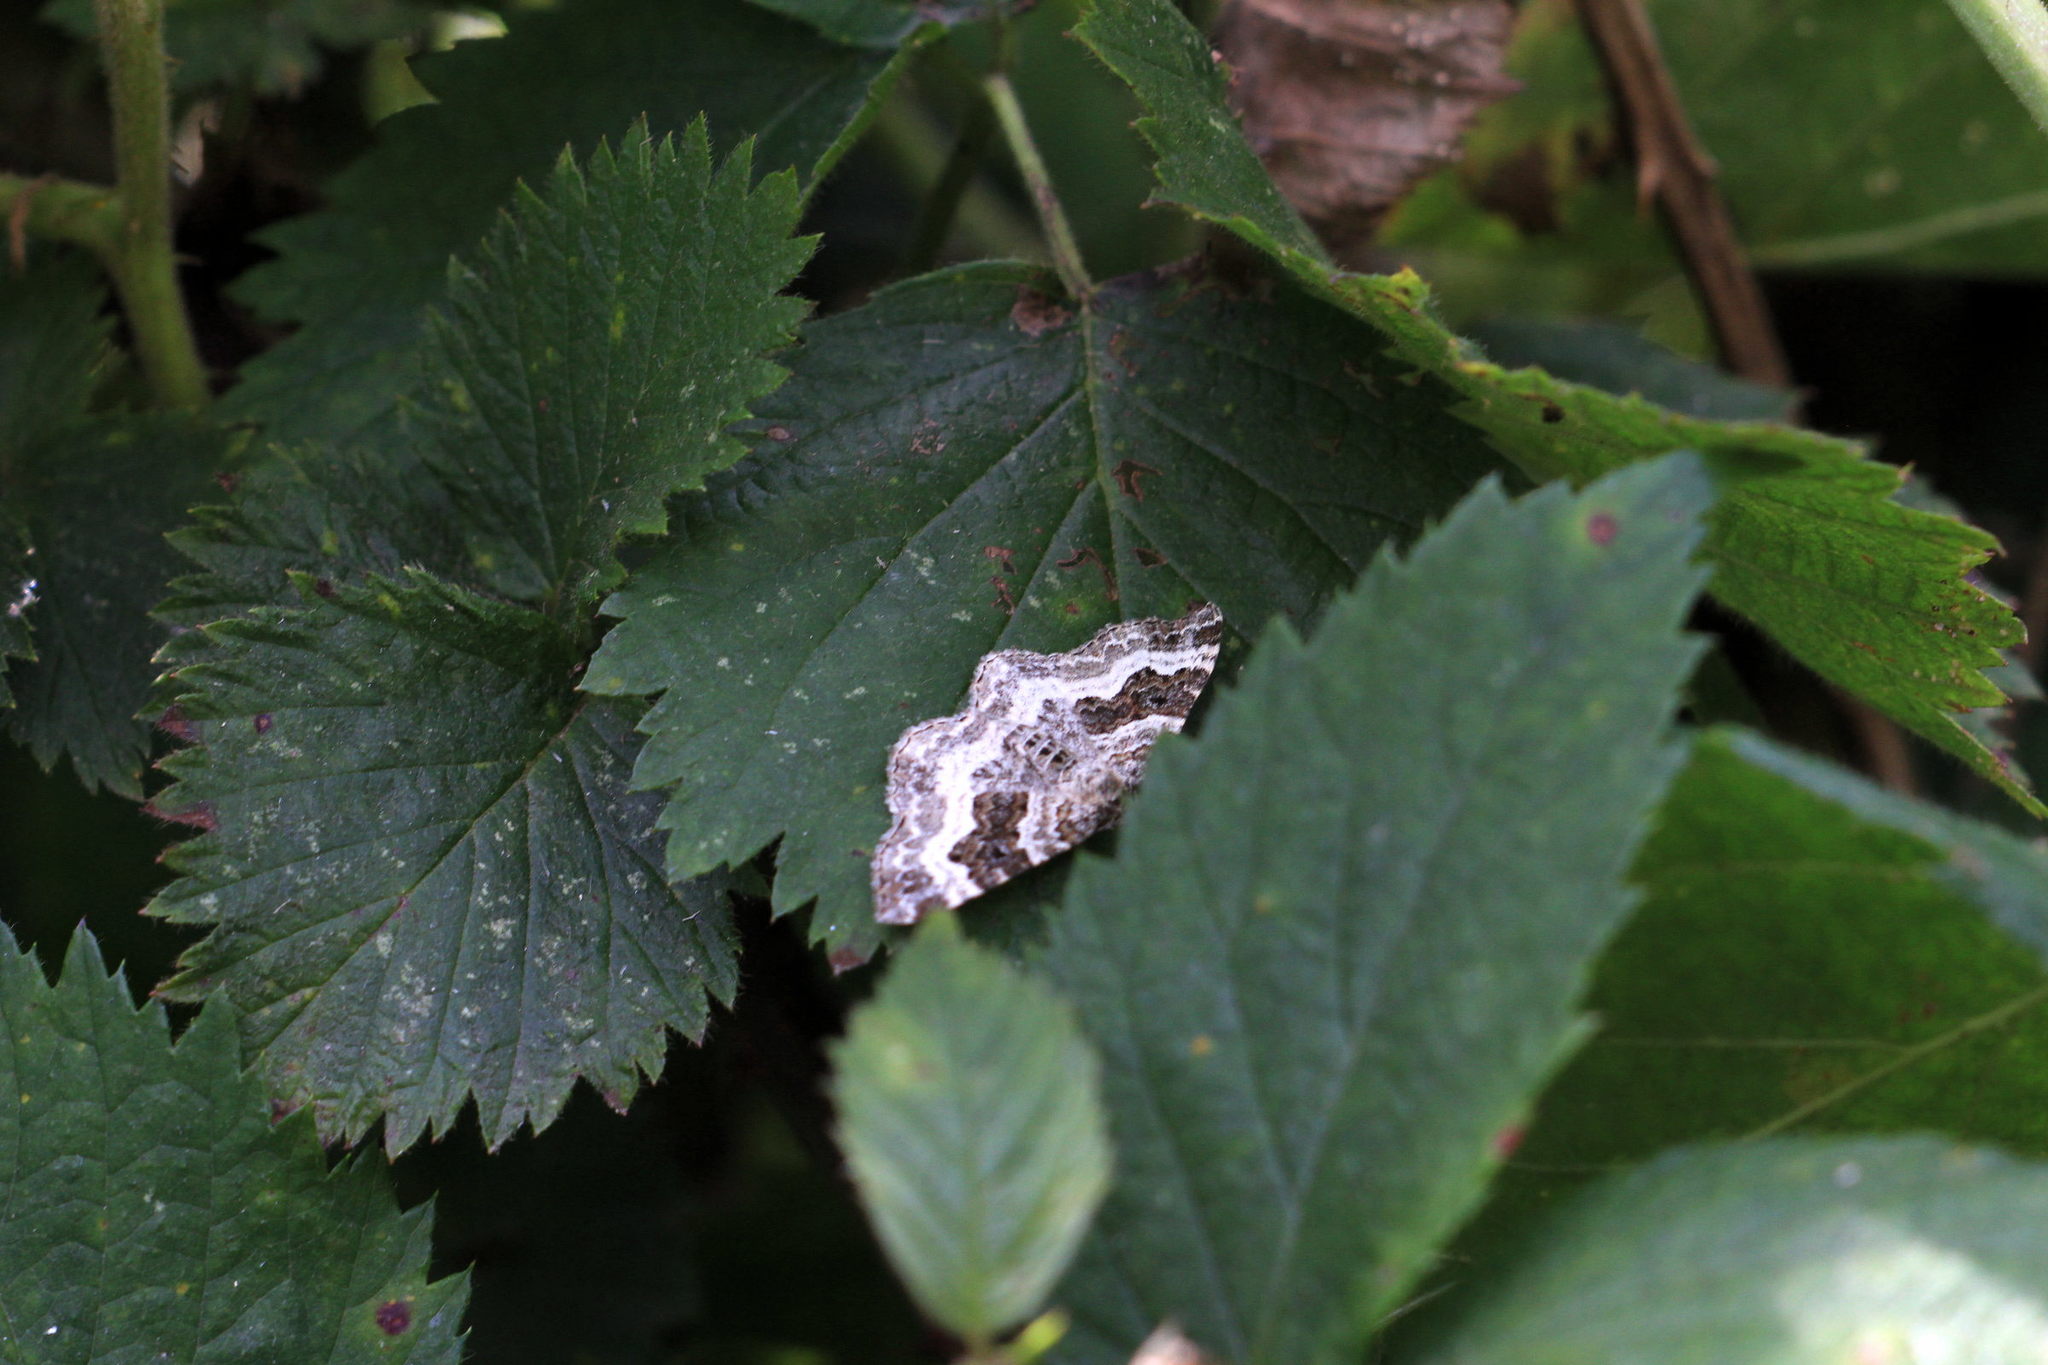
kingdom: Animalia
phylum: Arthropoda
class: Insecta
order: Lepidoptera
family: Geometridae
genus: Epirrhoe
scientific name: Epirrhoe alternata
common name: Common carpet
